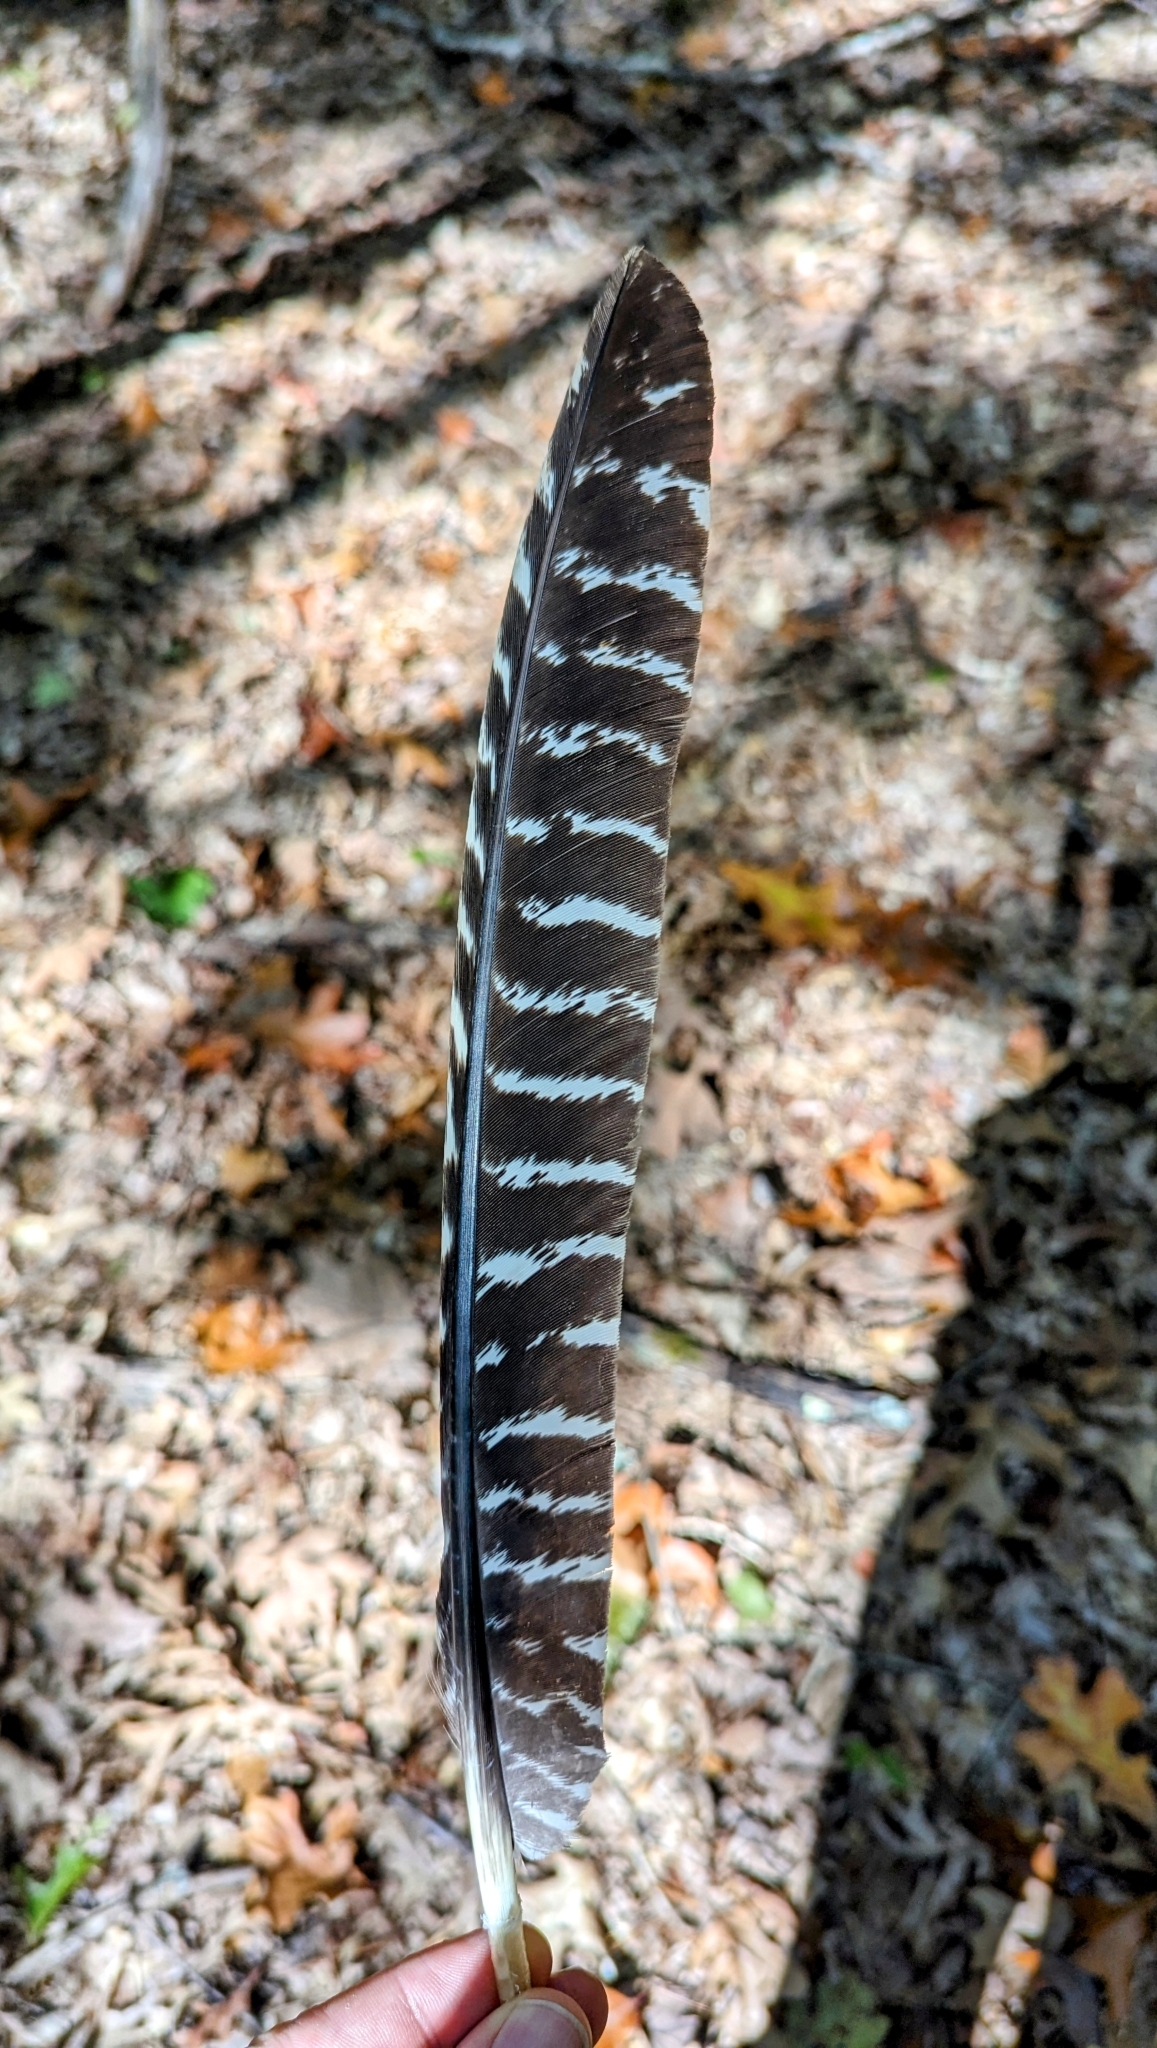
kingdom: Animalia
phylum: Chordata
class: Aves
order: Galliformes
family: Phasianidae
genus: Meleagris
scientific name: Meleagris gallopavo
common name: Wild turkey
